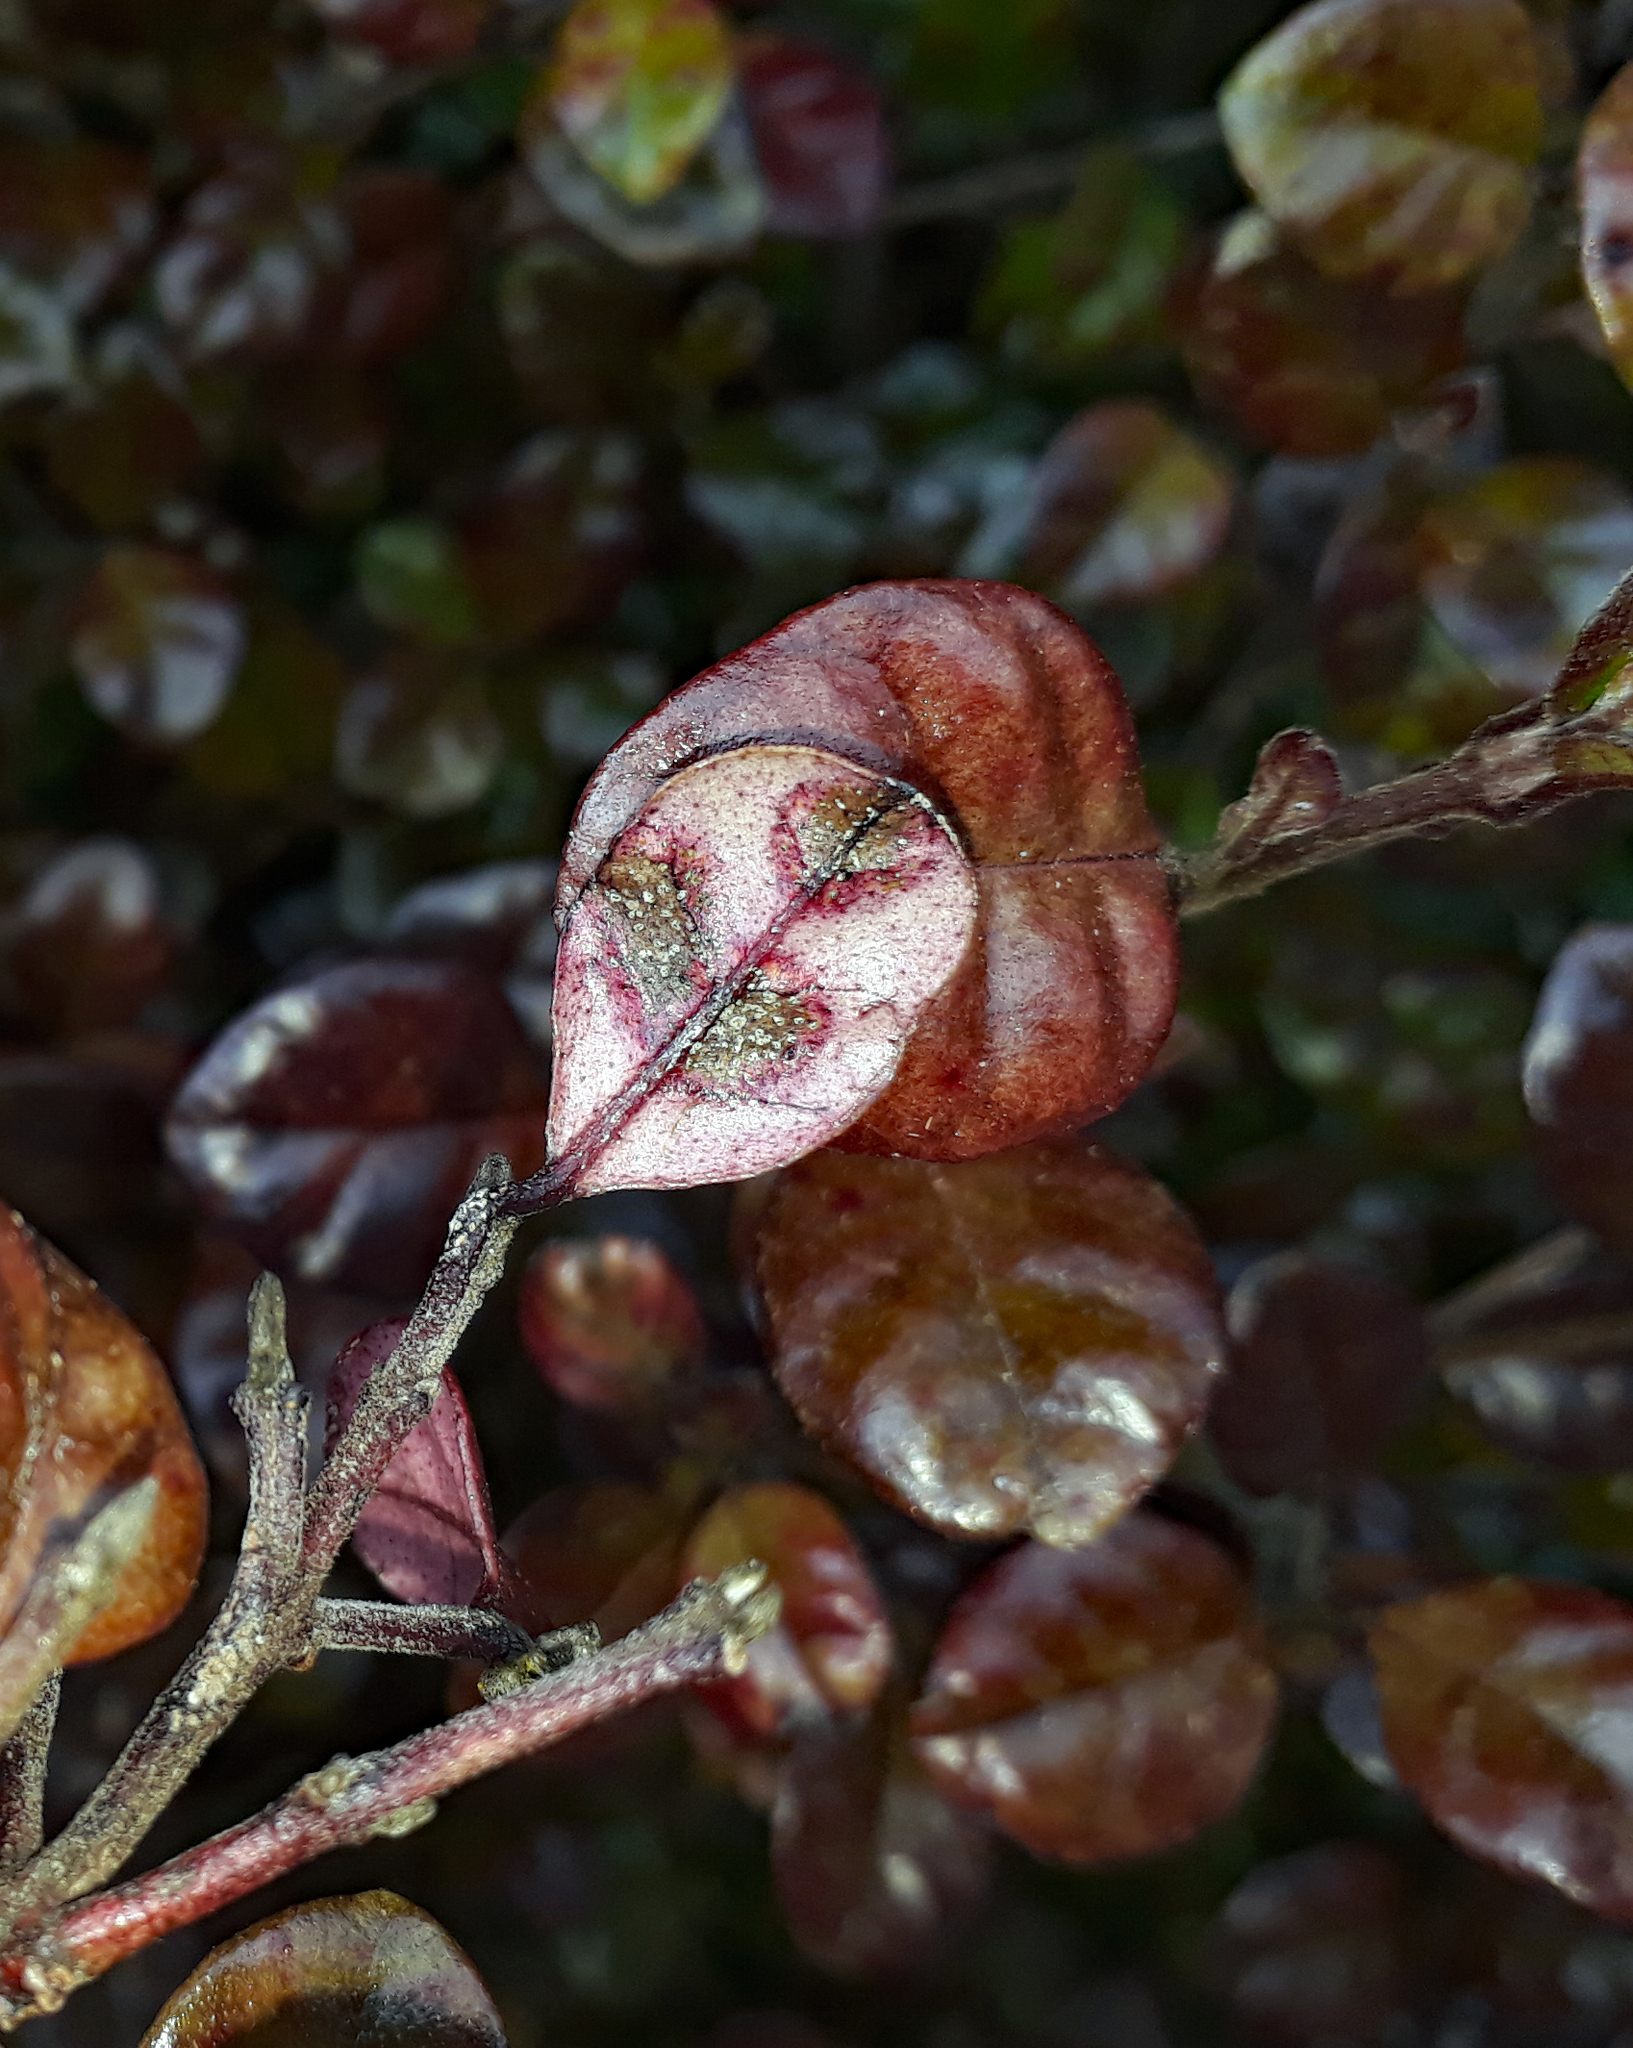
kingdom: Fungi
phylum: Basidiomycota
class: Pucciniomycetes
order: Pucciniales
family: Sphaerophragmiaceae
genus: Austropuccinia
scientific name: Austropuccinia psidii
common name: Myrtle rust
